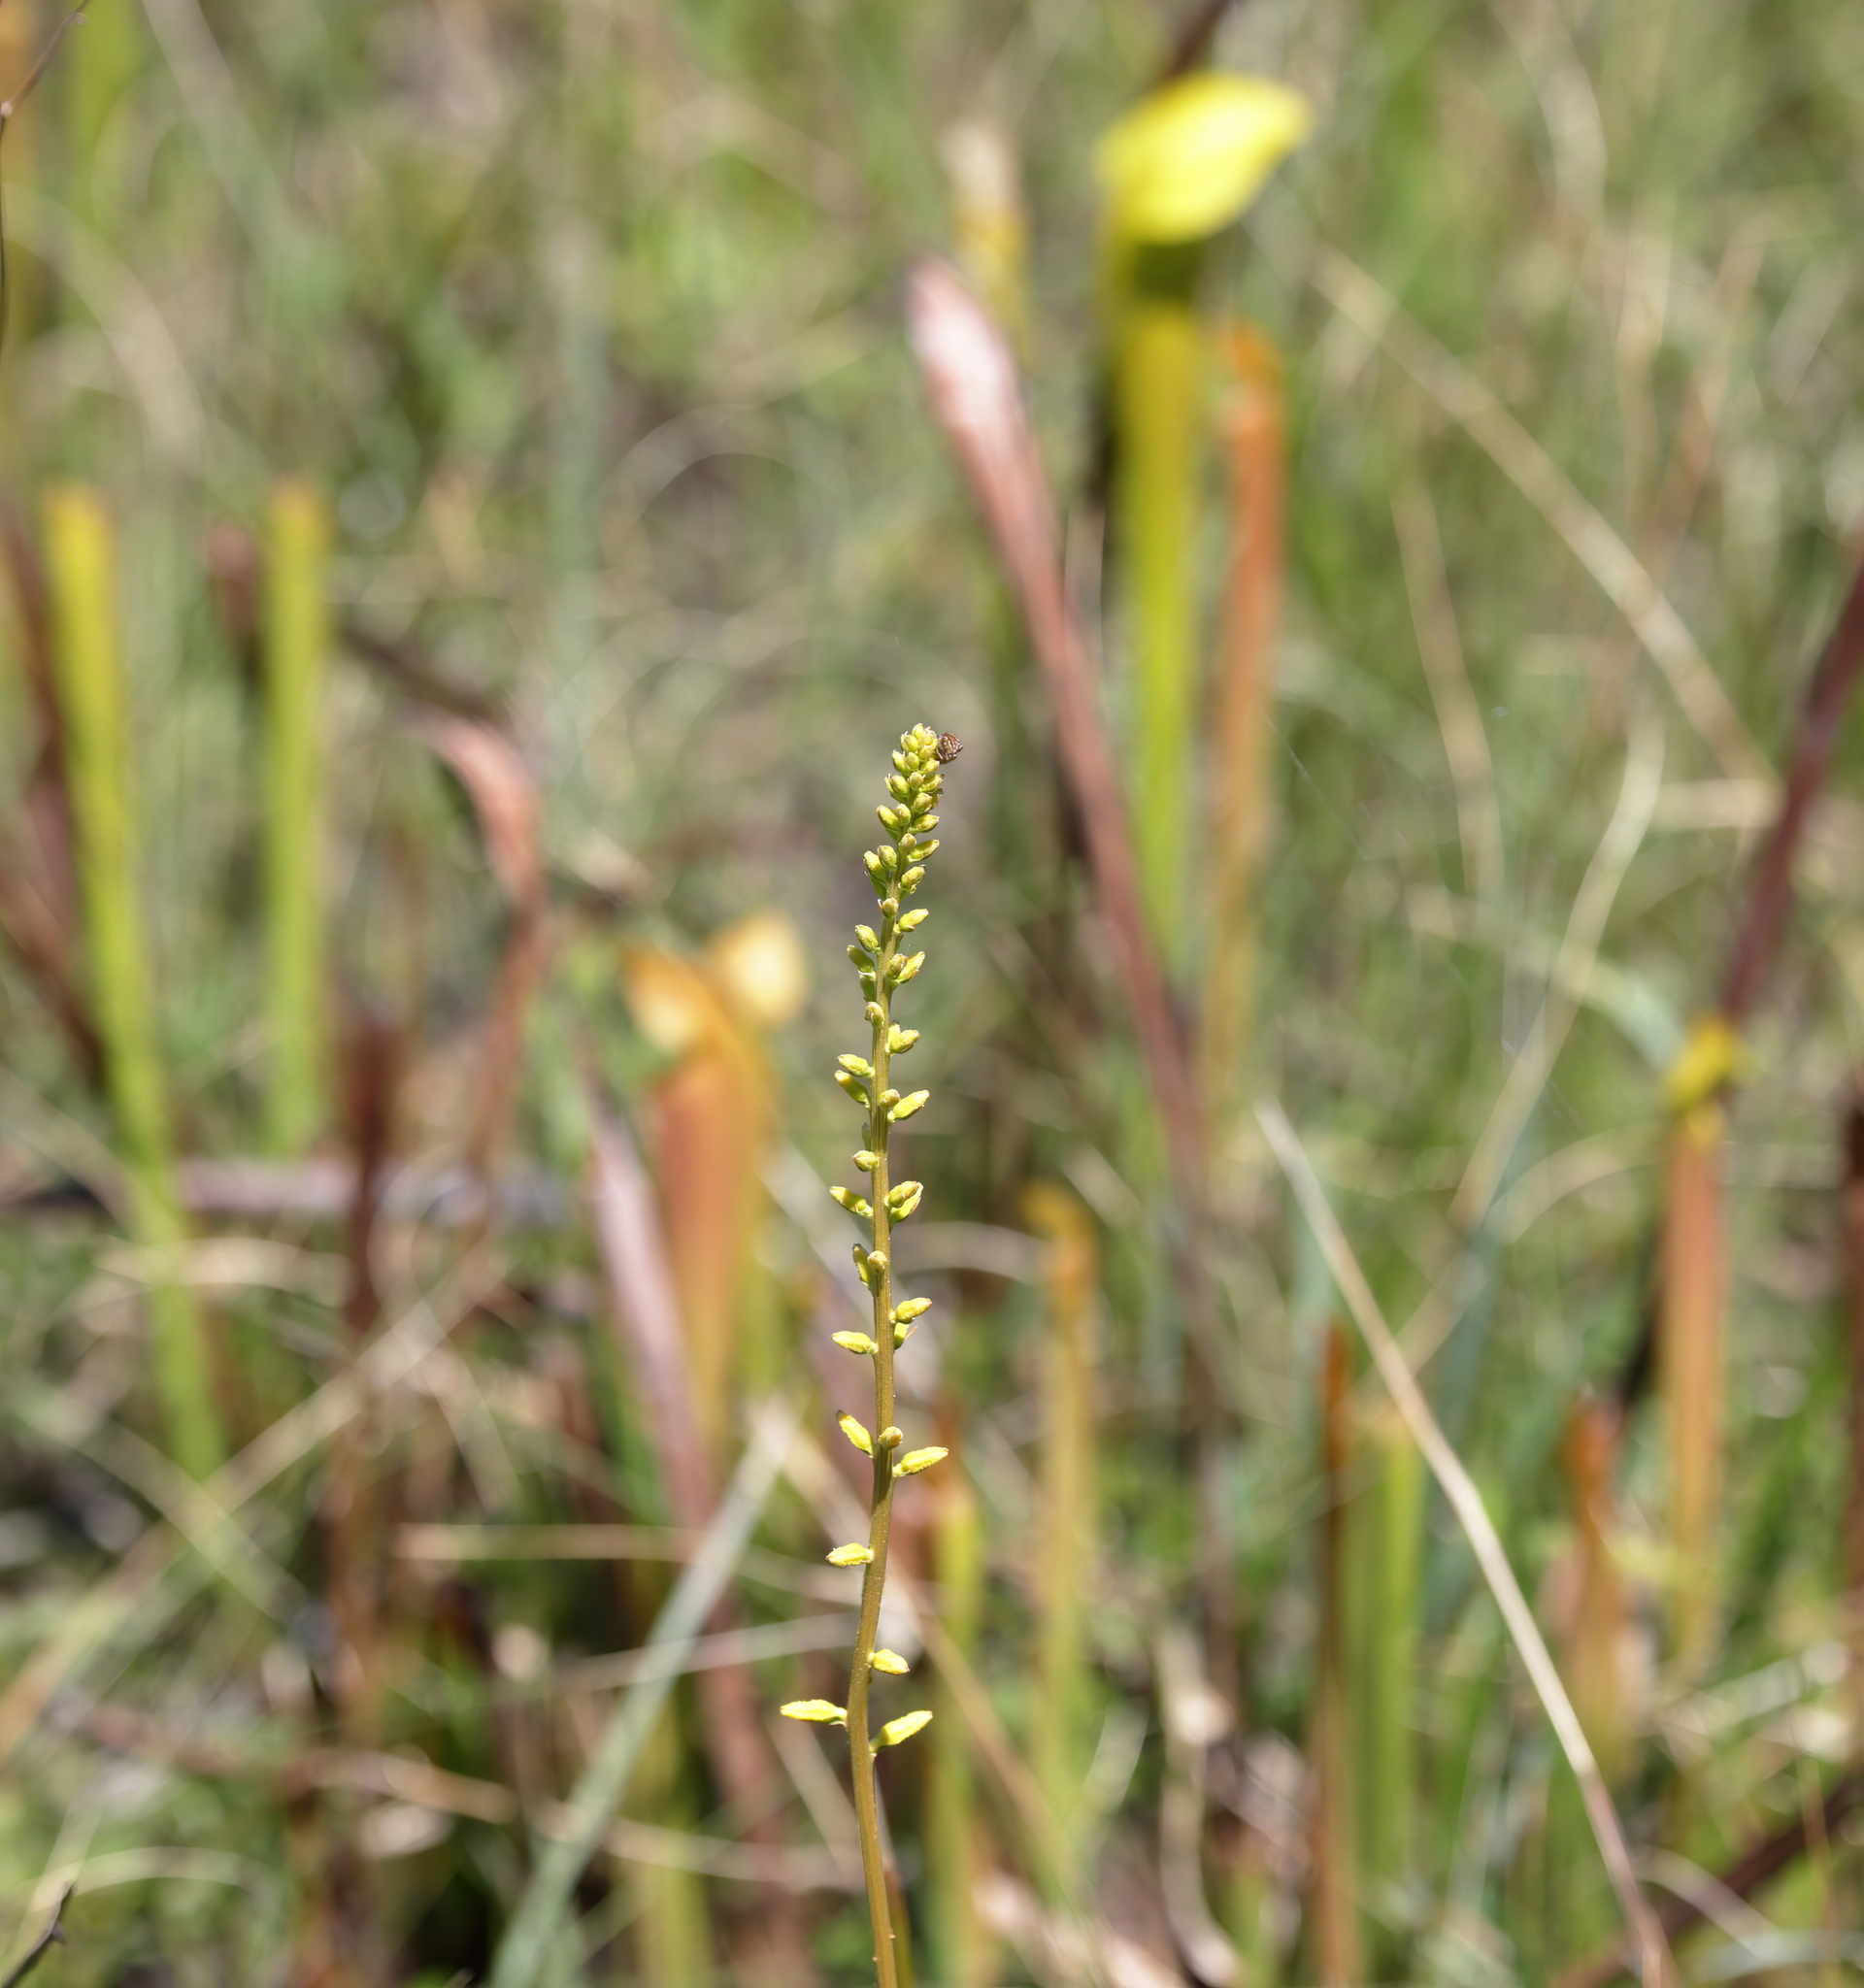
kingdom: Plantae
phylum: Tracheophyta
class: Liliopsida
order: Dioscoreales
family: Nartheciaceae
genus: Aletris
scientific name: Aletris lutea
